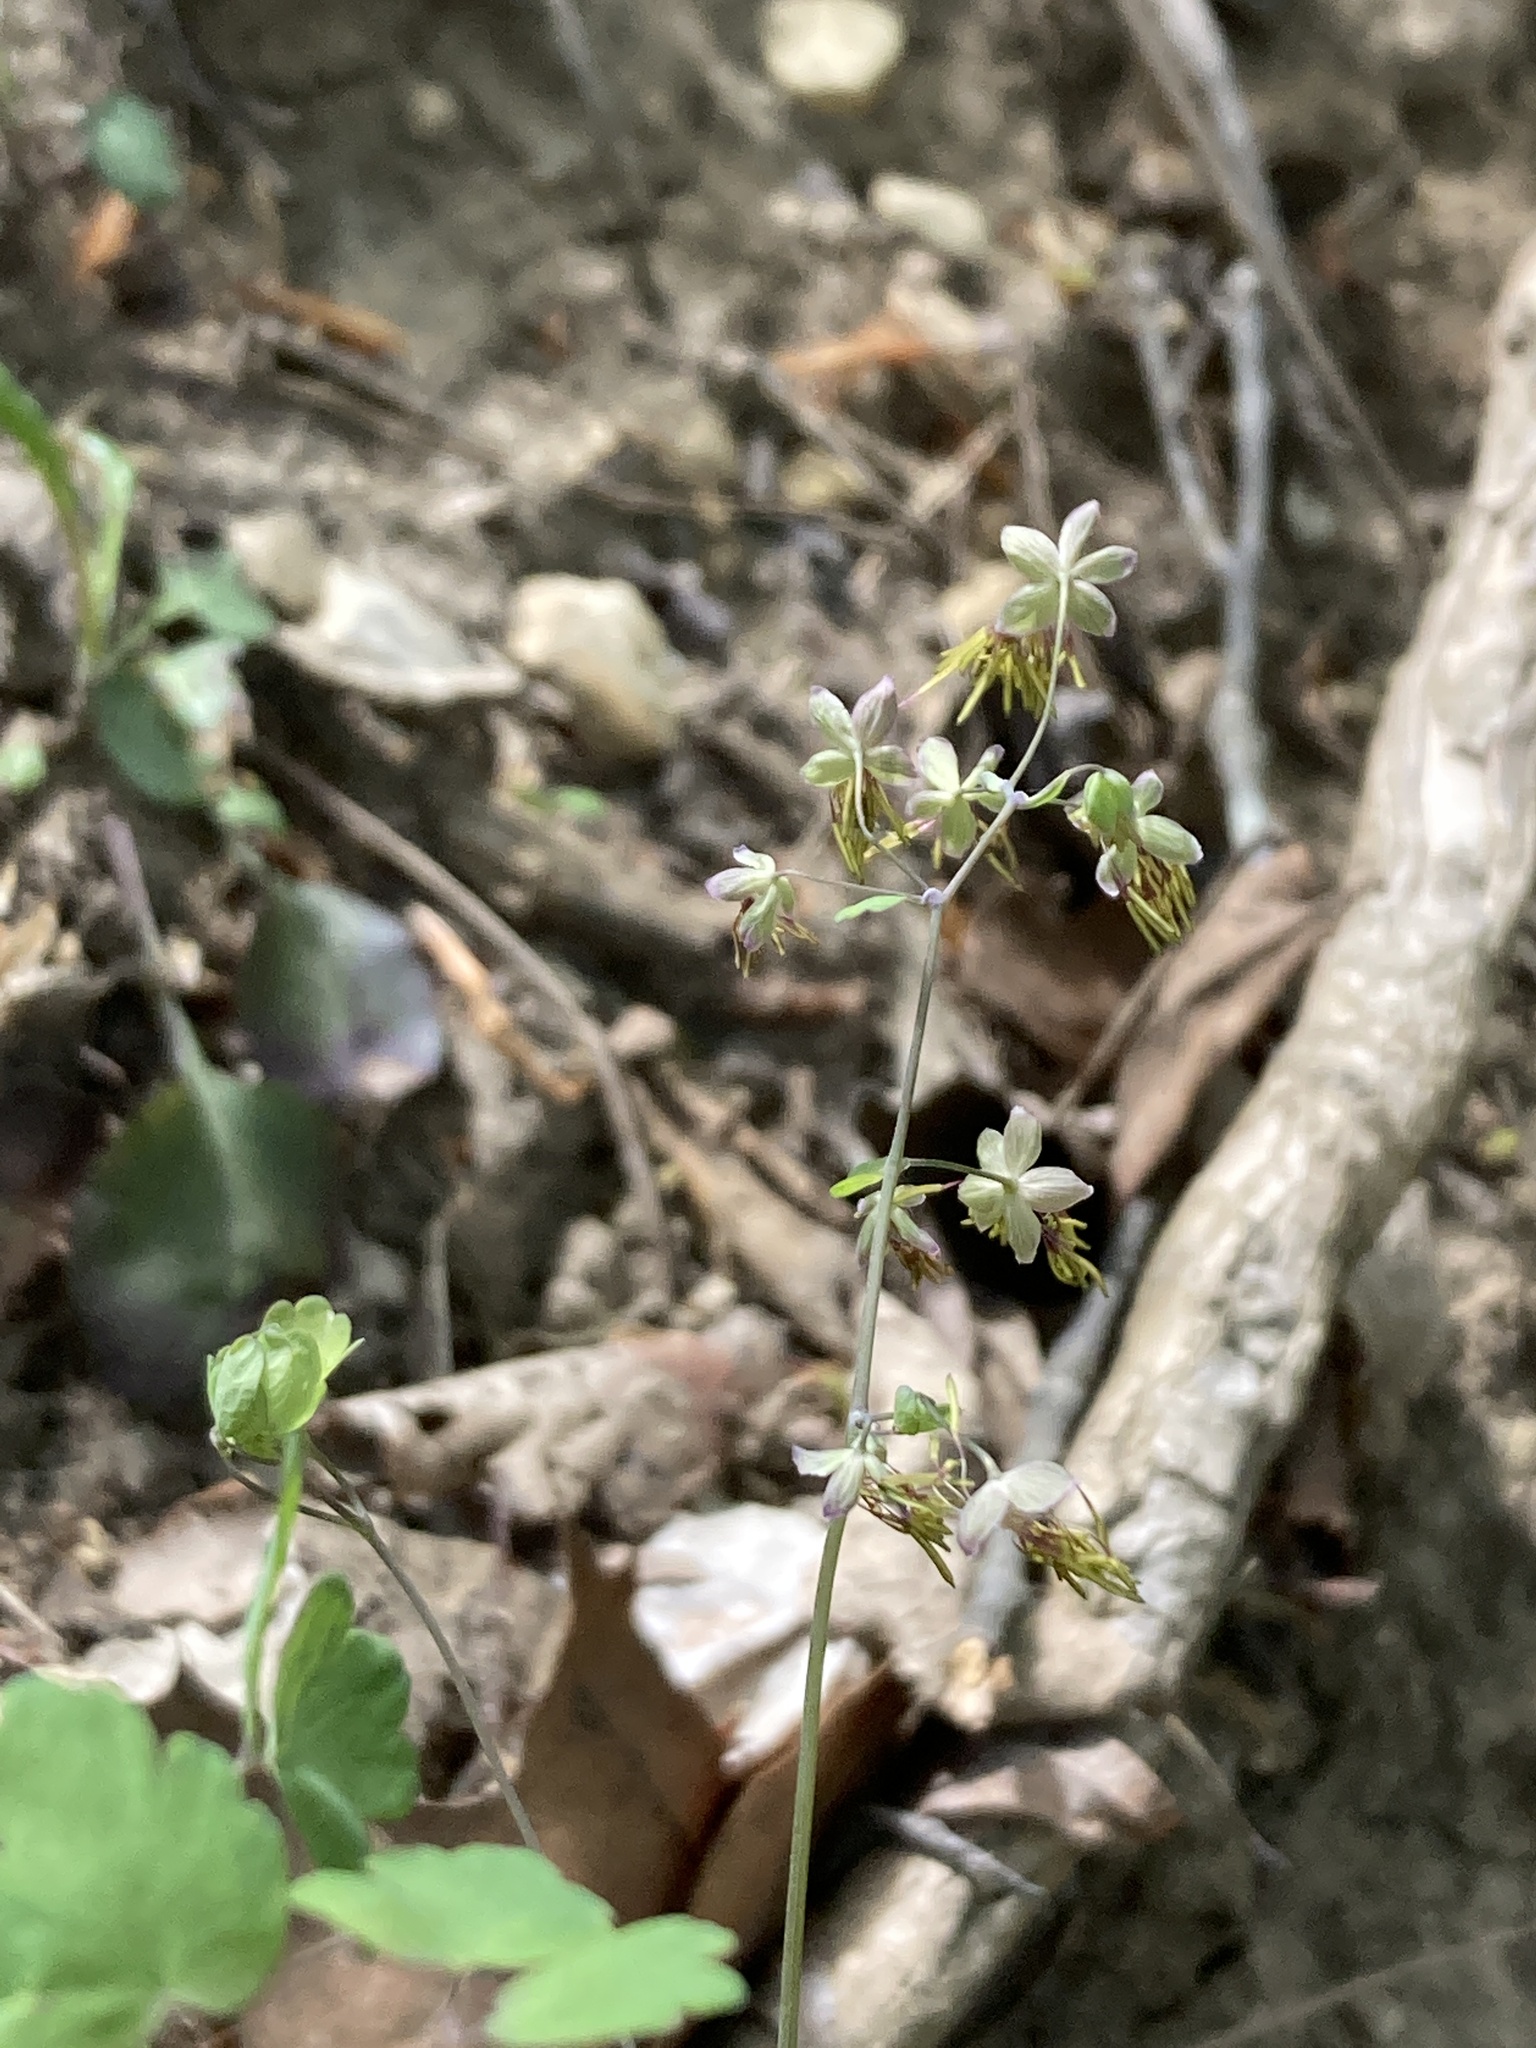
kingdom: Plantae
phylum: Tracheophyta
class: Magnoliopsida
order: Ranunculales
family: Ranunculaceae
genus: Thalictrum
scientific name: Thalictrum dioicum
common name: Early meadow-rue
